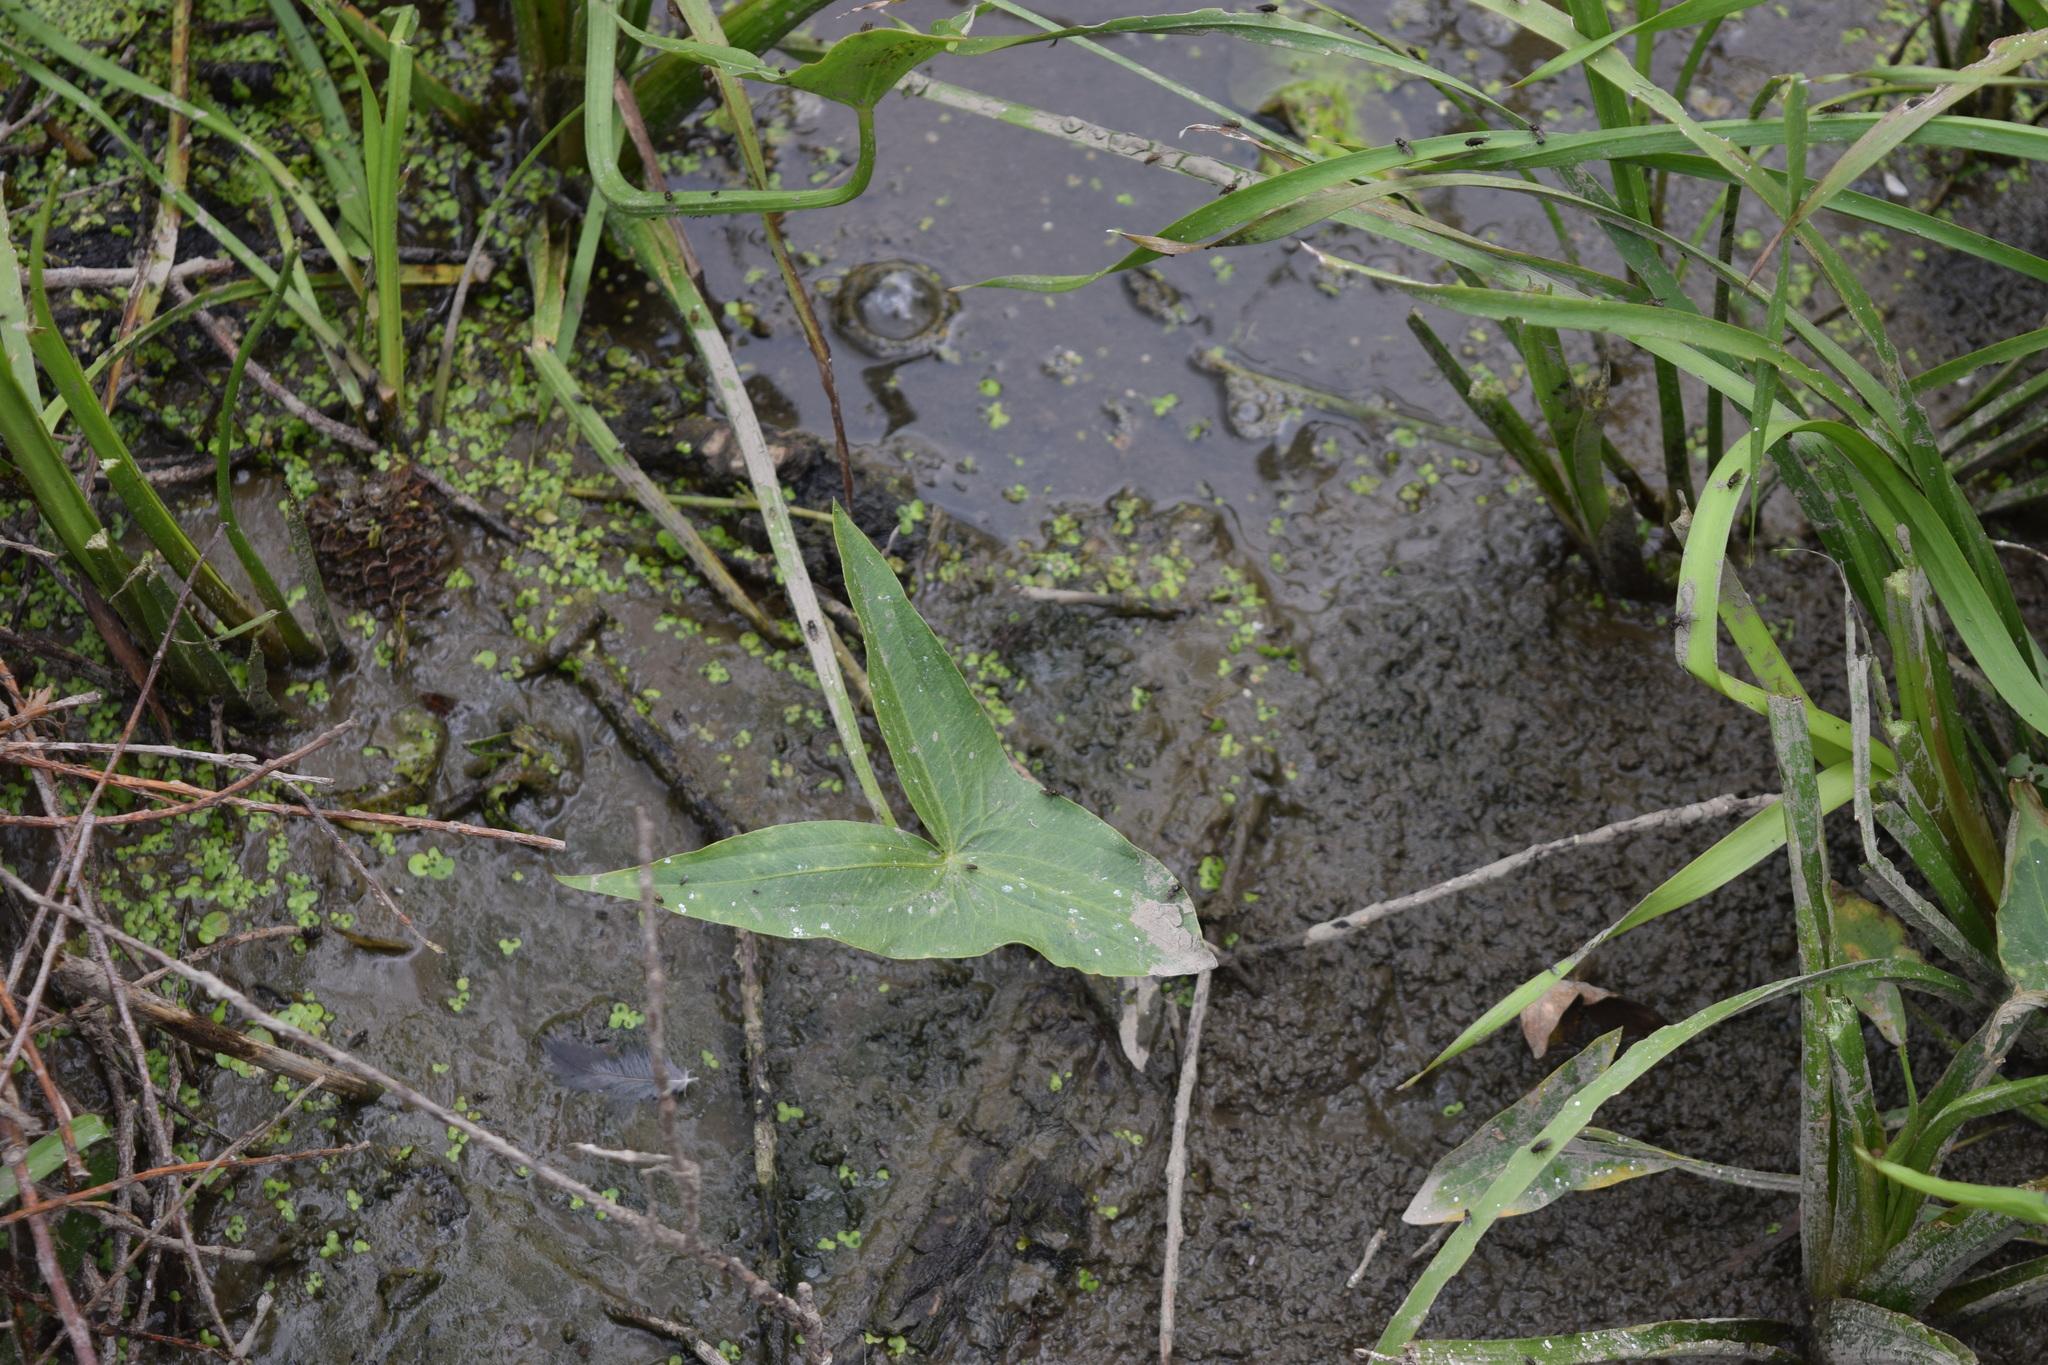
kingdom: Plantae
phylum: Tracheophyta
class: Liliopsida
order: Alismatales
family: Alismataceae
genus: Sagittaria
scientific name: Sagittaria sagittifolia
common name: Arrowhead
